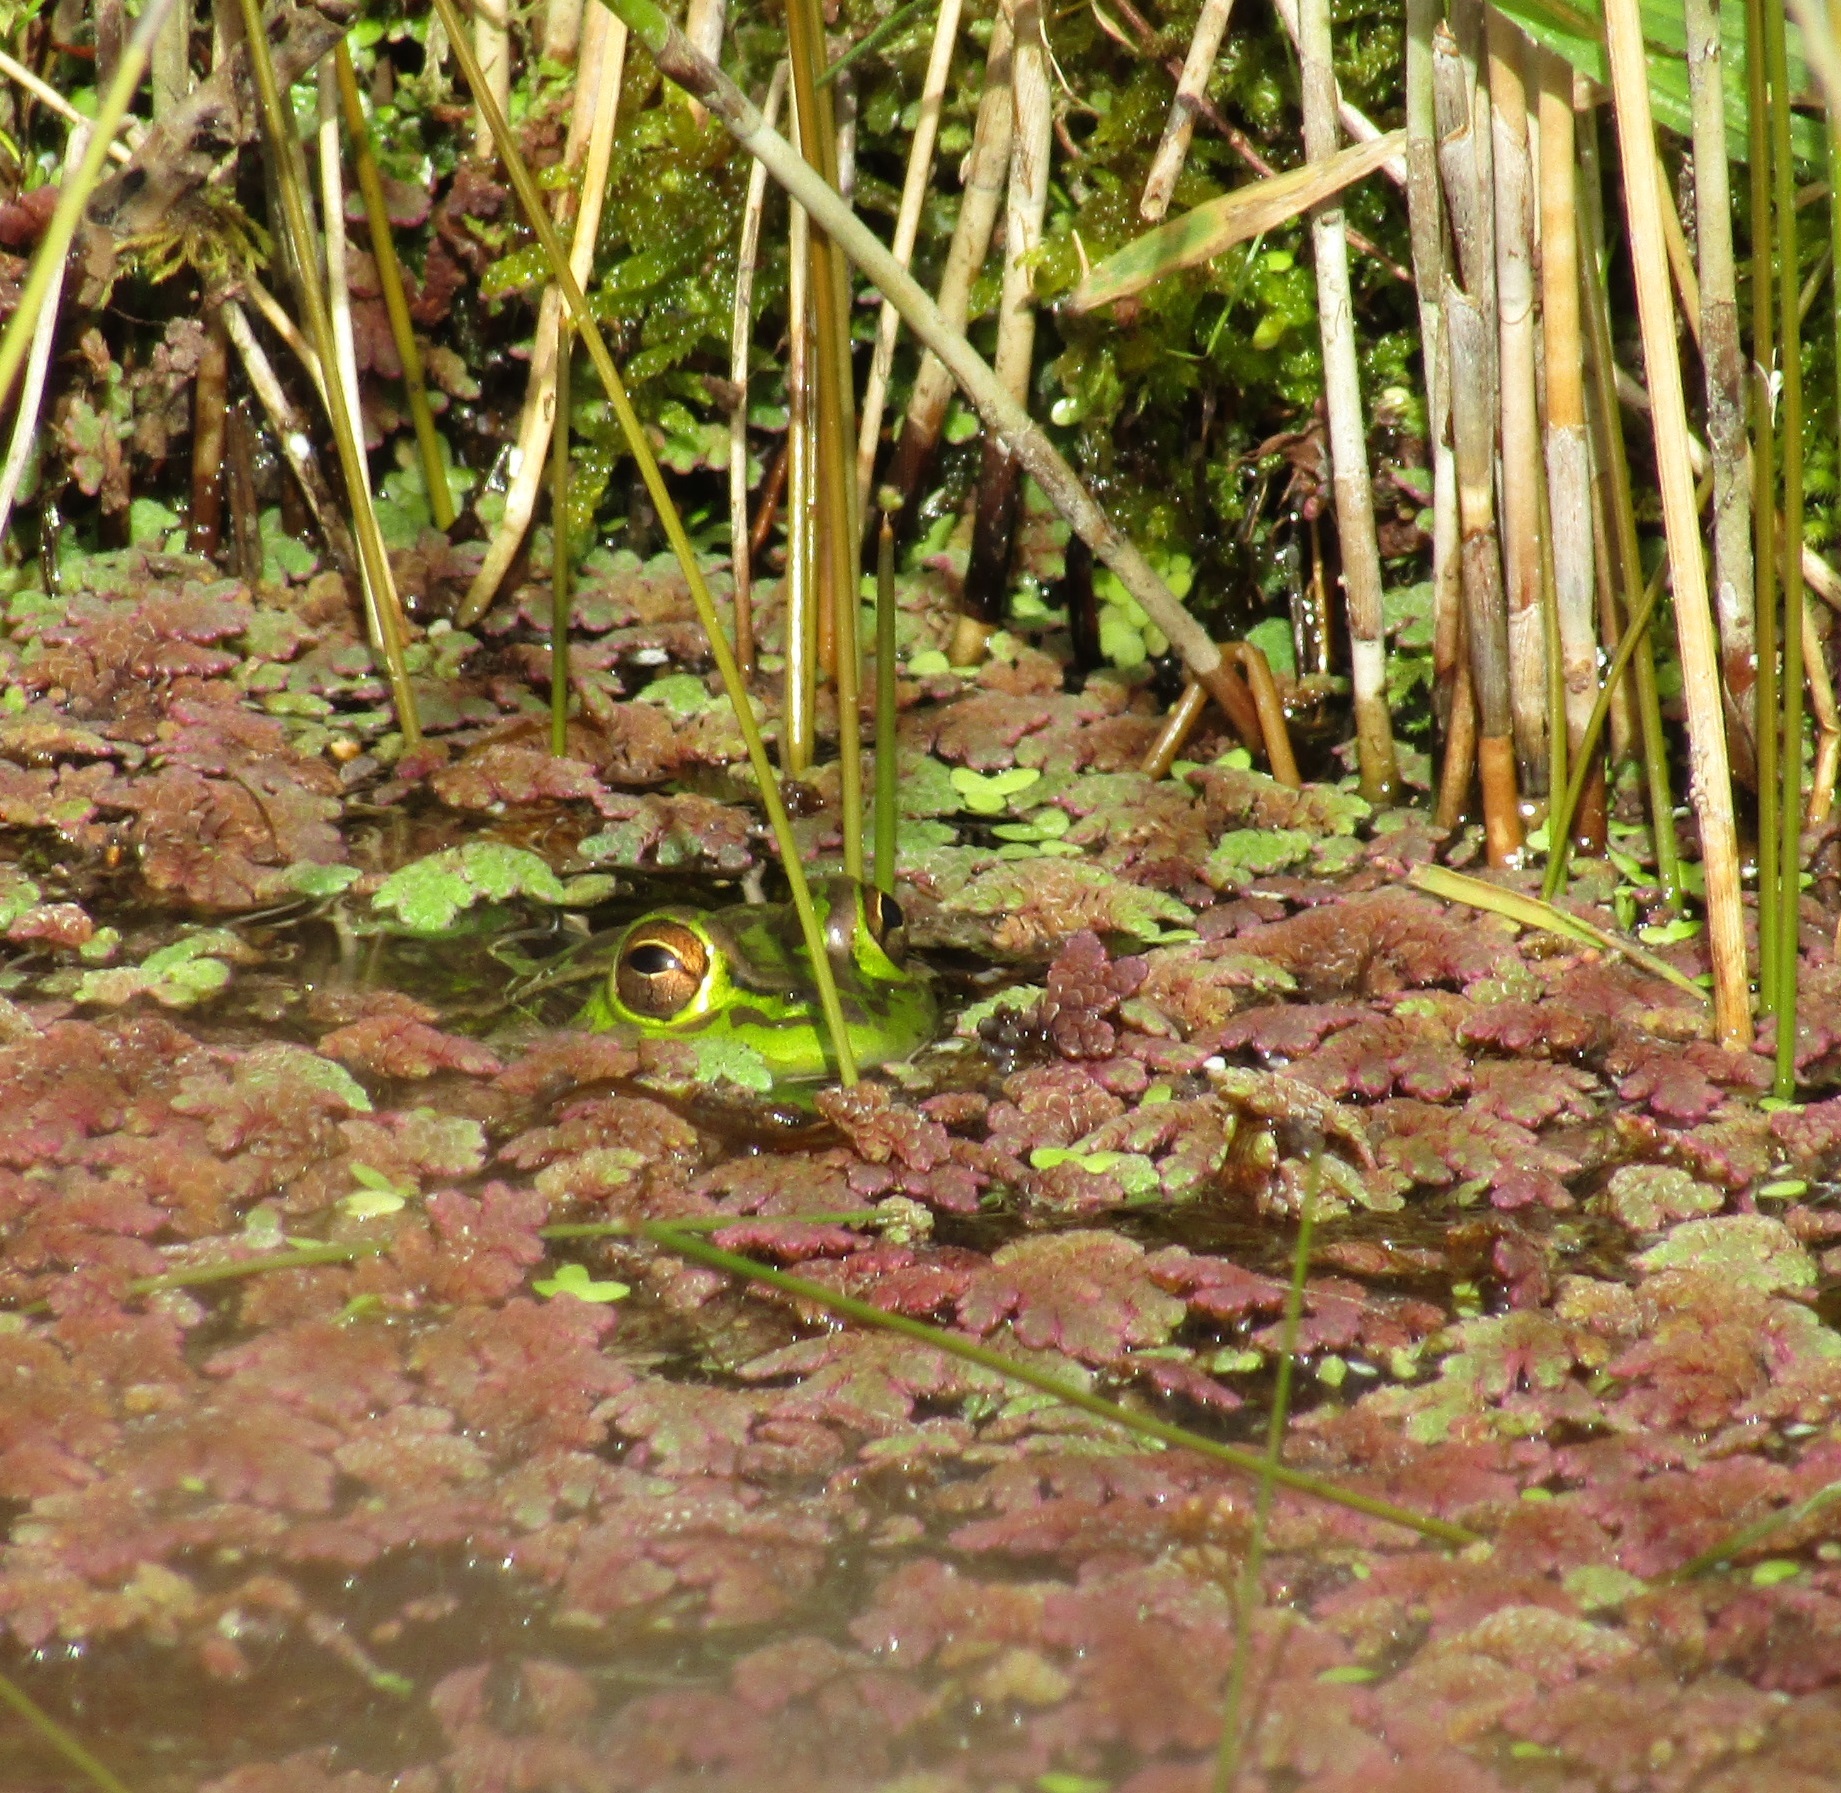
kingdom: Animalia
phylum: Chordata
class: Amphibia
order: Anura
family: Pelodryadidae
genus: Ranoidea
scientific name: Ranoidea raniformis
